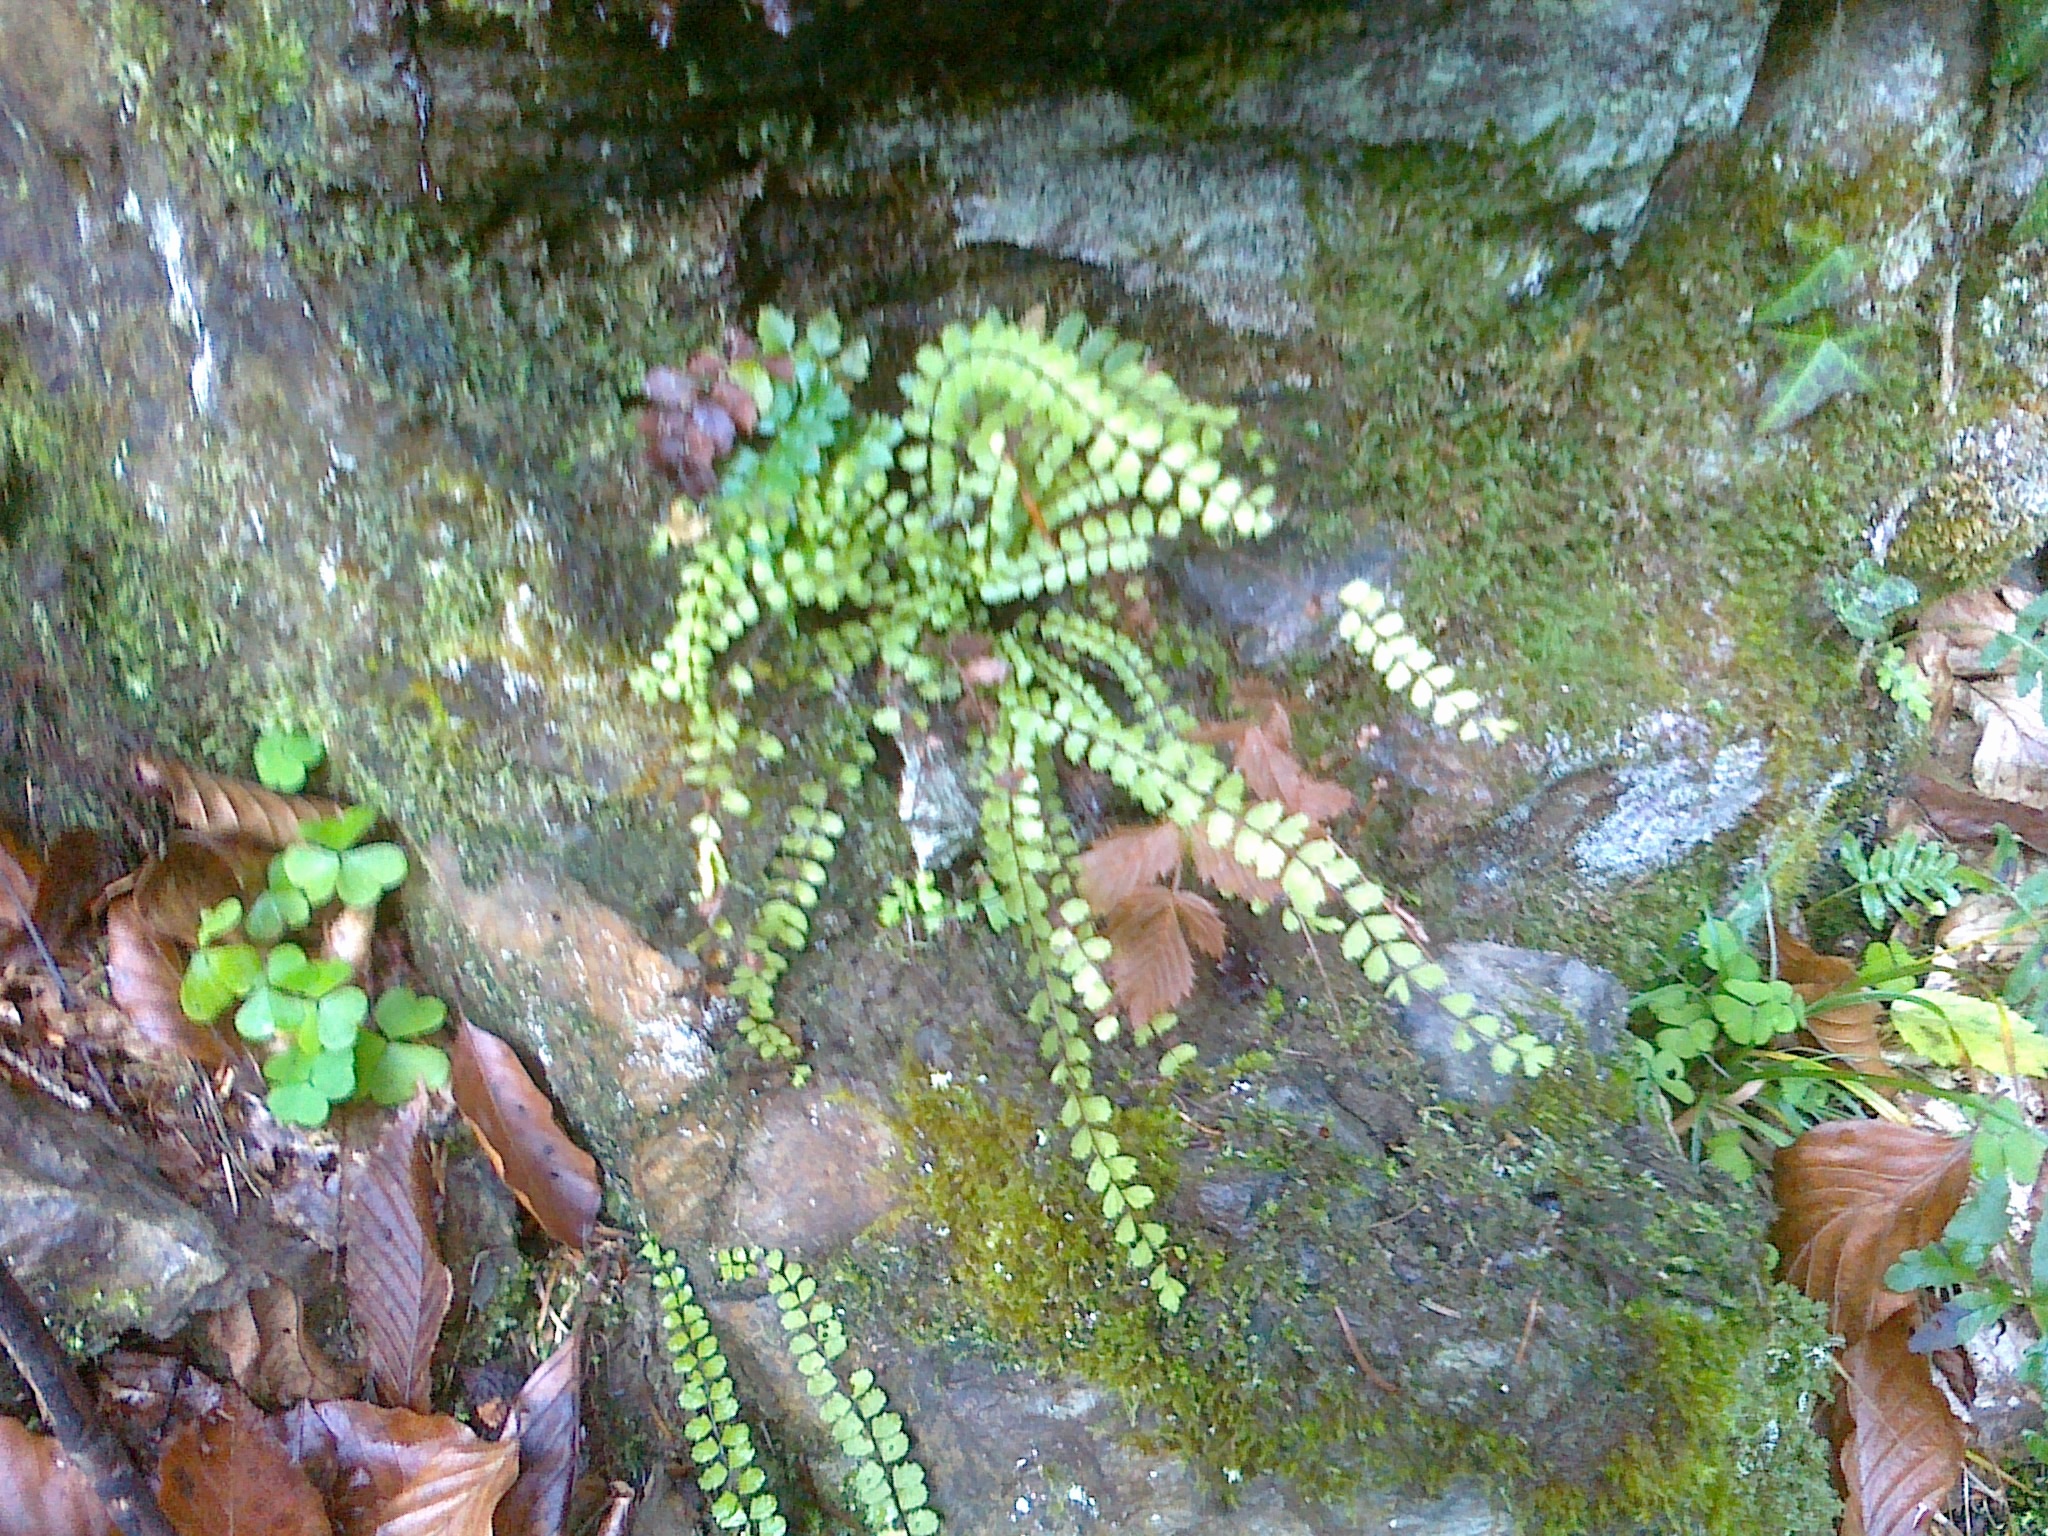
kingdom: Plantae
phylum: Tracheophyta
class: Polypodiopsida
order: Polypodiales
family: Aspleniaceae
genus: Asplenium
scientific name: Asplenium trichomanes
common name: Maidenhair spleenwort
